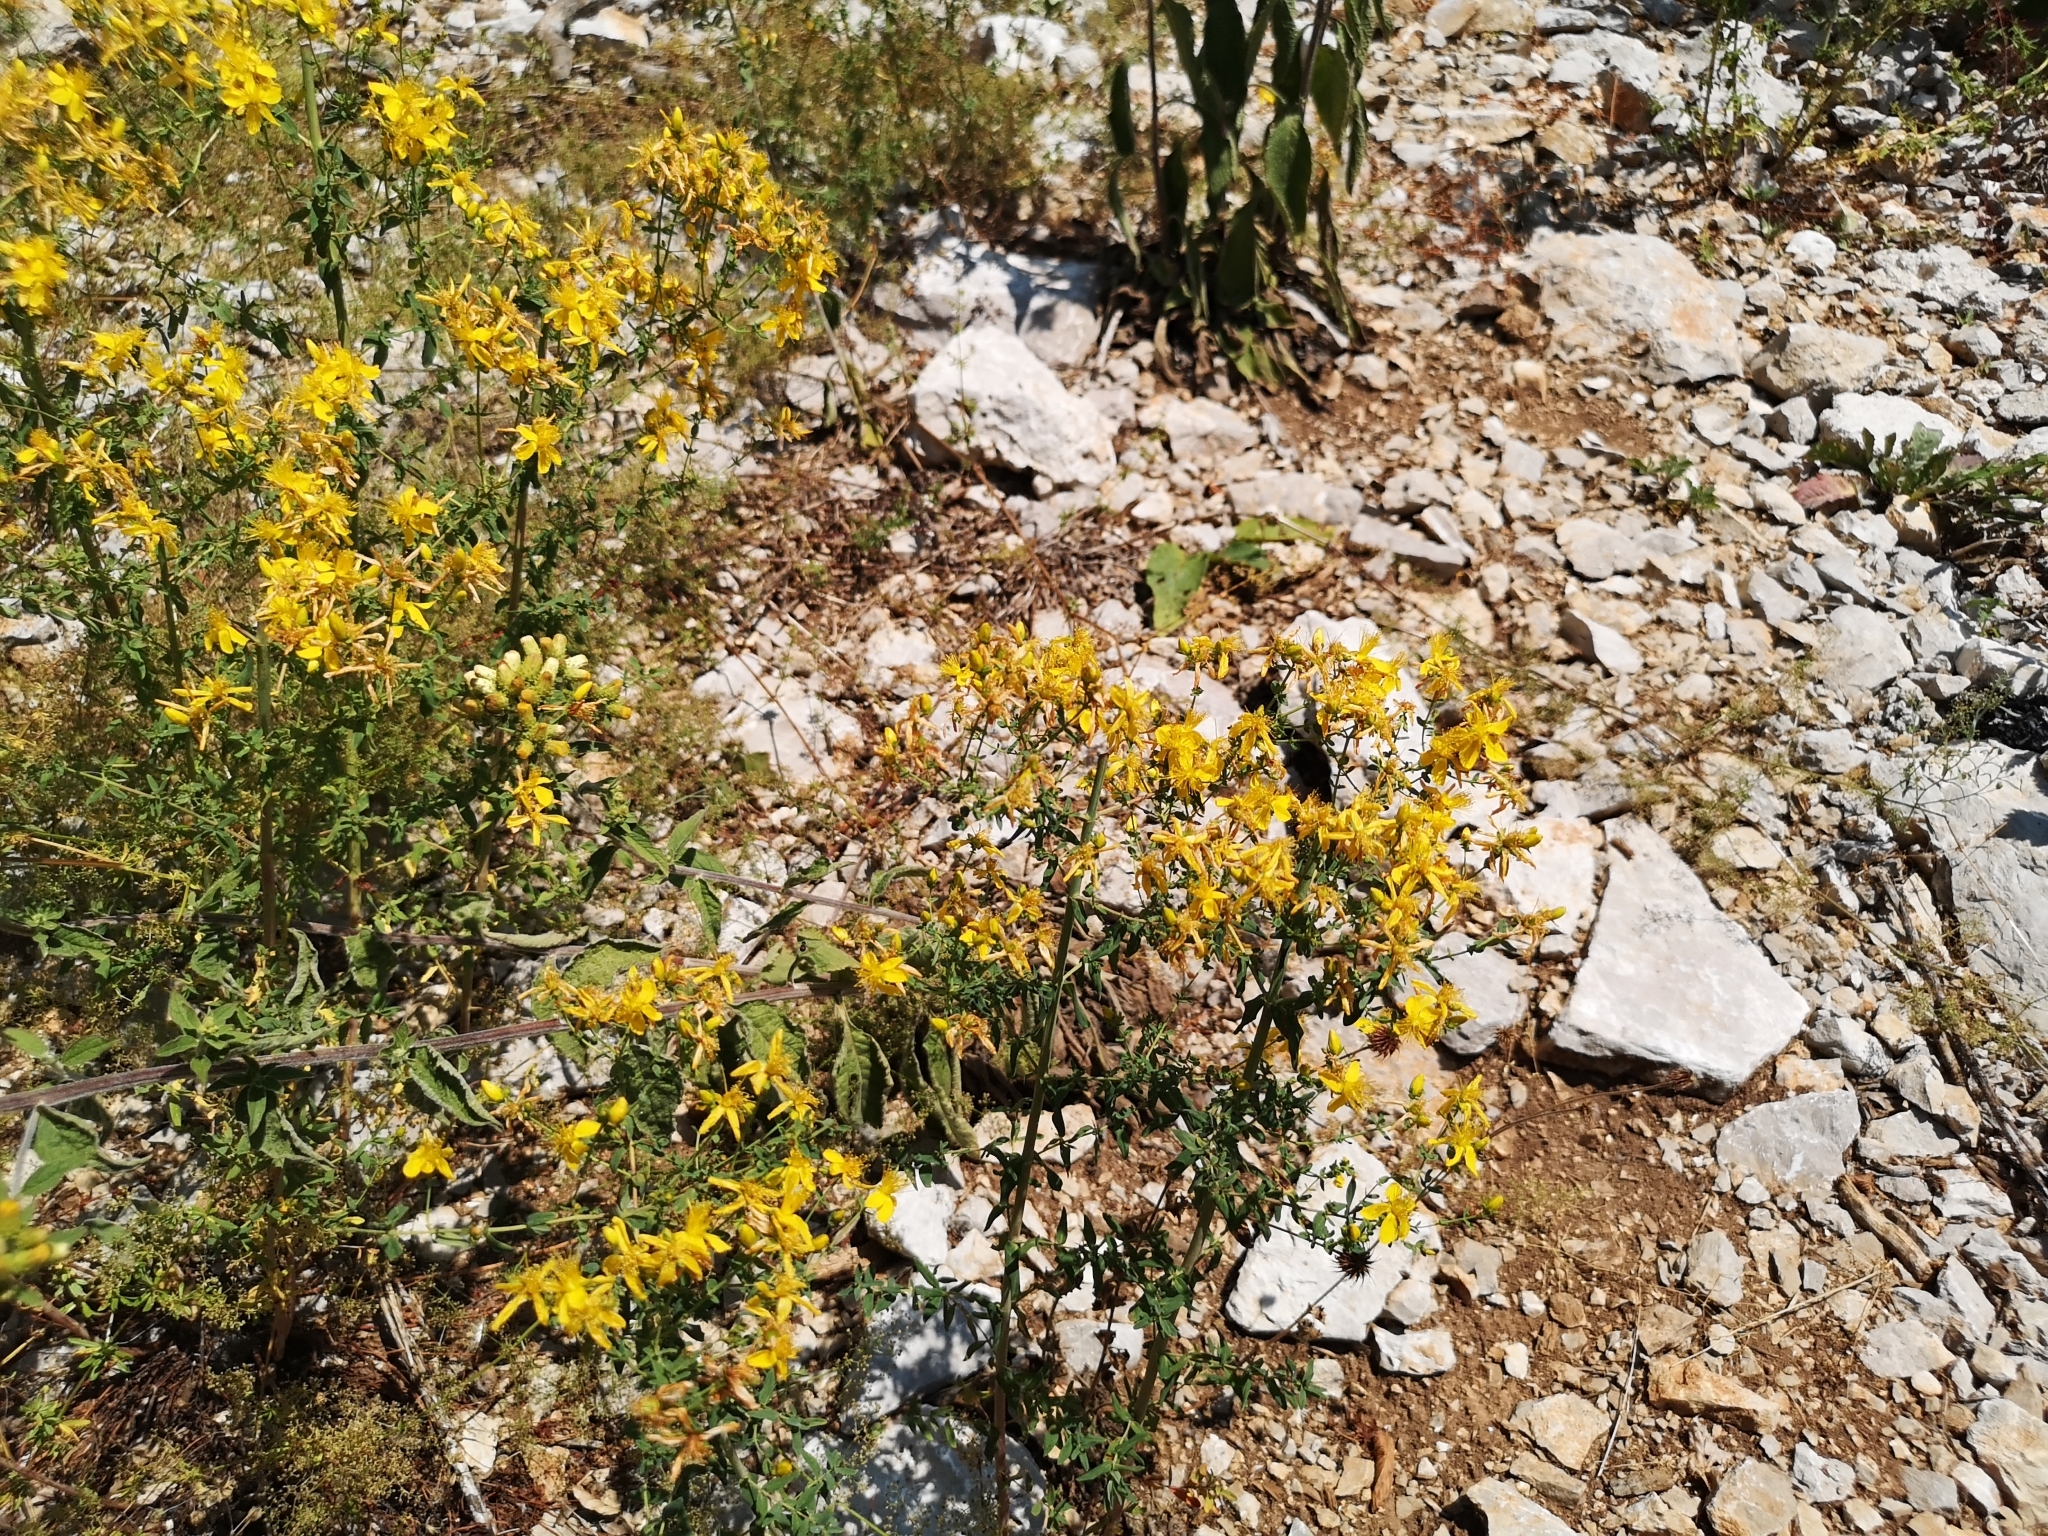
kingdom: Plantae
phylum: Tracheophyta
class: Magnoliopsida
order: Malpighiales
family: Hypericaceae
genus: Hypericum
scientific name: Hypericum perforatum
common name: Common st. johnswort
